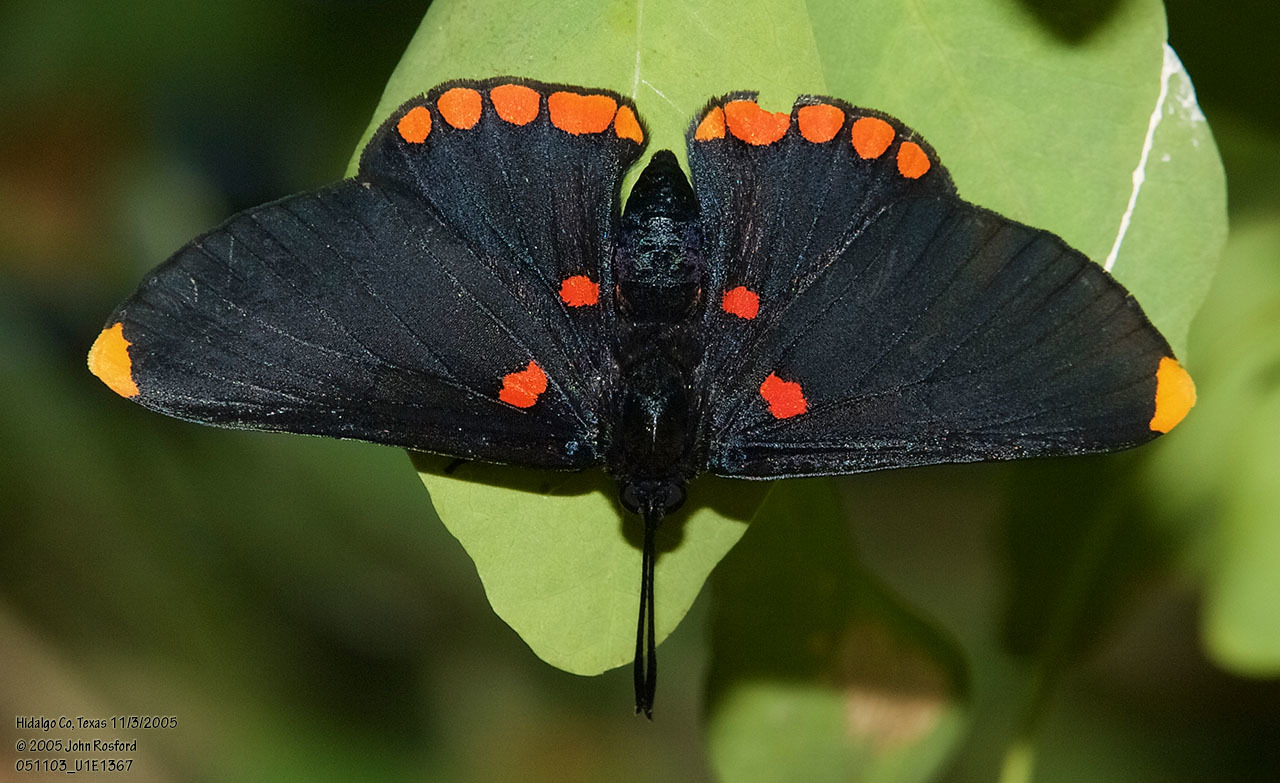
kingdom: Animalia
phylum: Arthropoda
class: Insecta
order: Lepidoptera
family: Lycaenidae
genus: Melanis
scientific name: Melanis pixe
